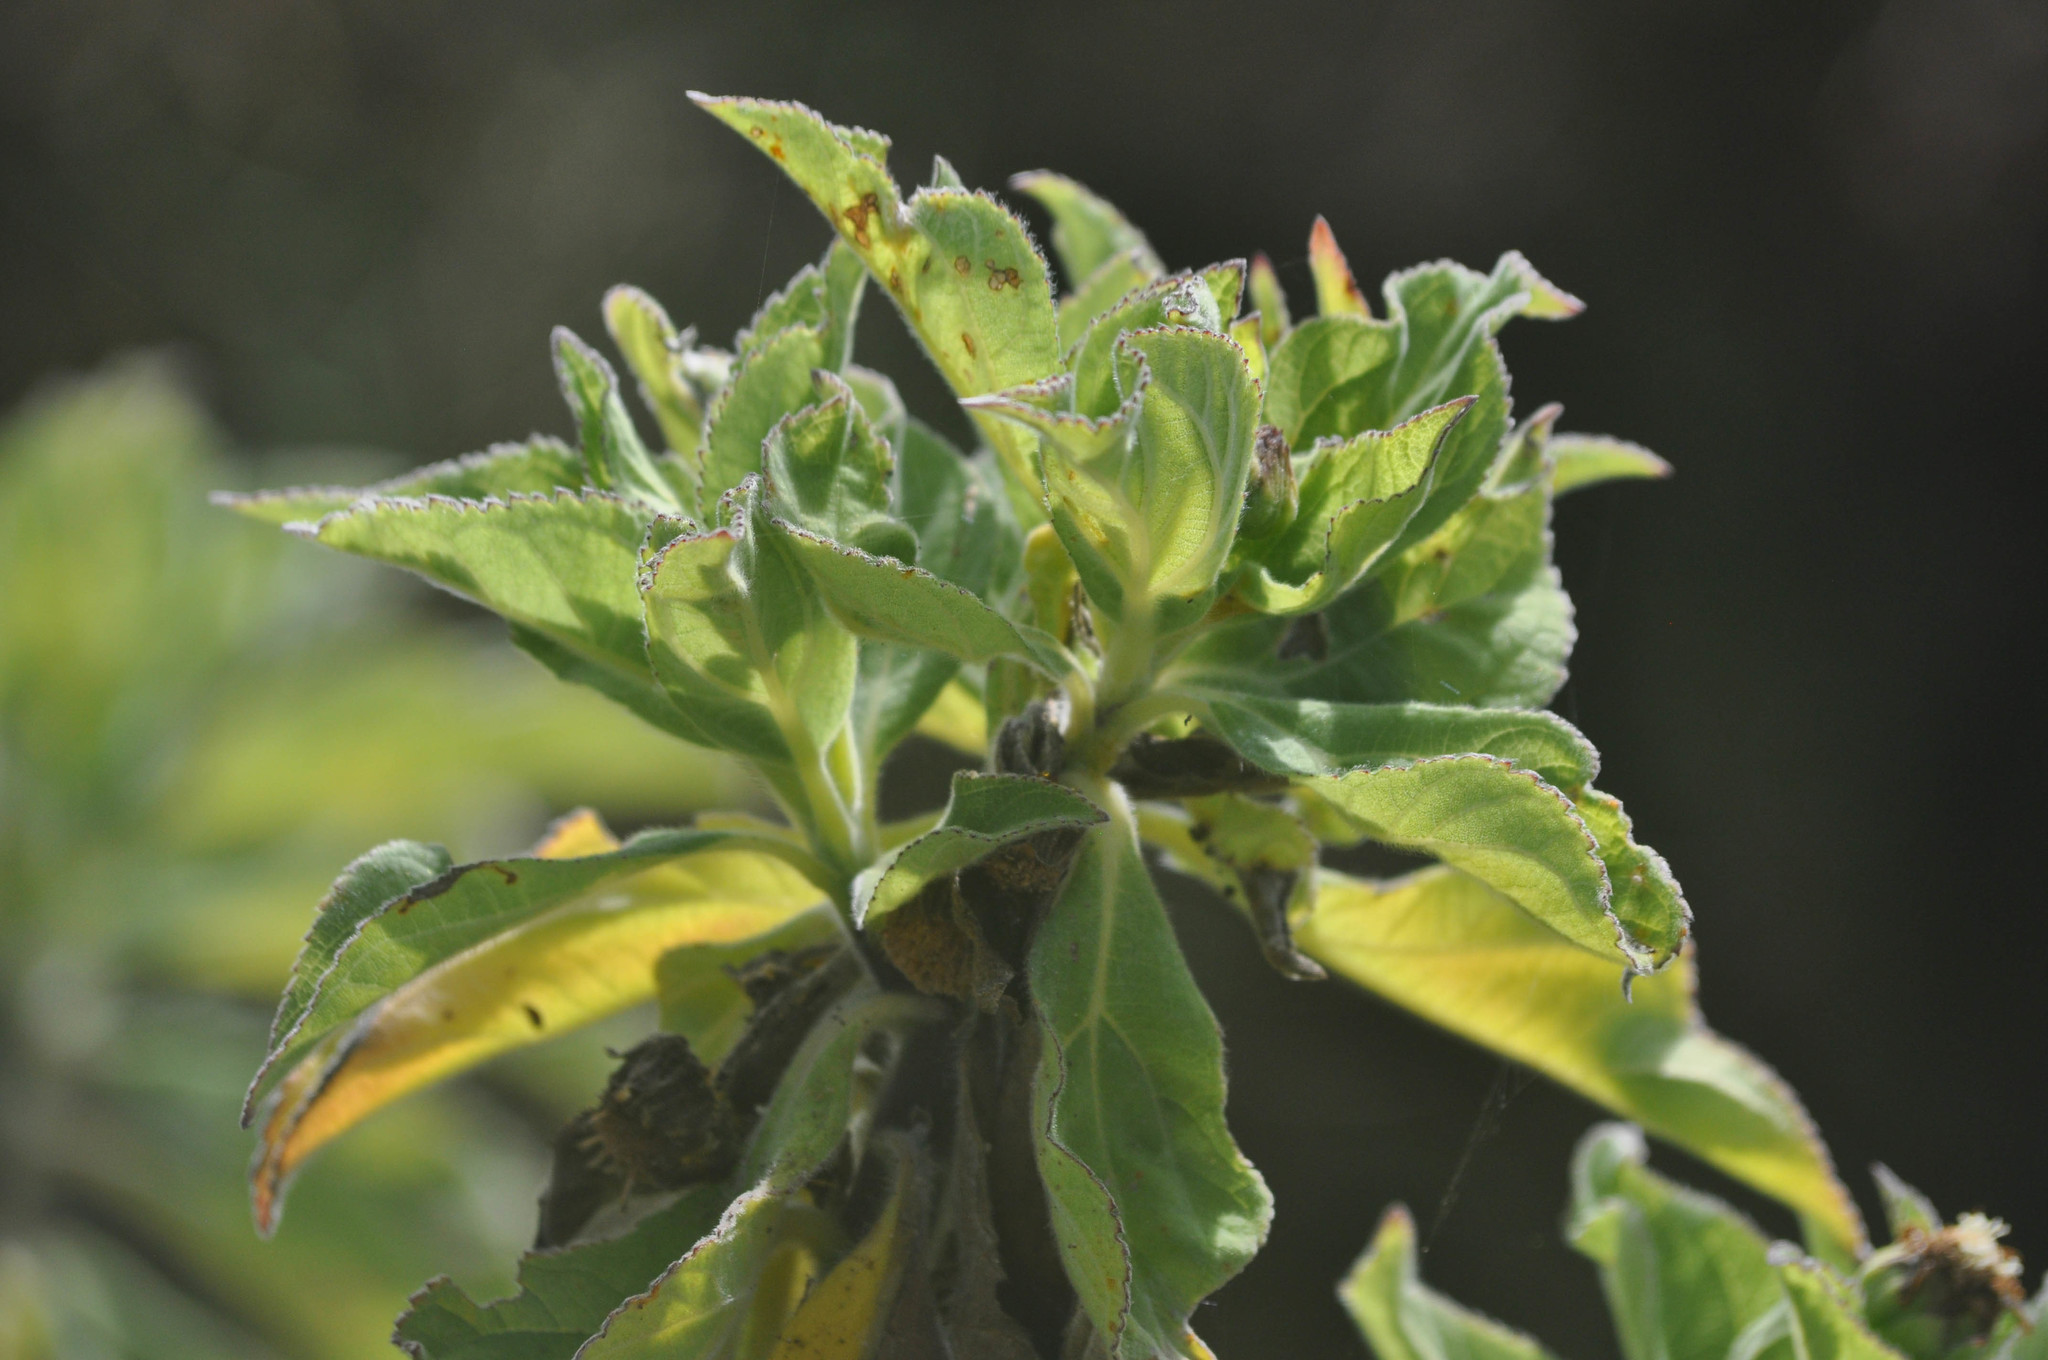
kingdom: Plantae
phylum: Tracheophyta
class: Magnoliopsida
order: Asterales
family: Asteraceae
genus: Scalesia
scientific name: Scalesia affinis
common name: Radiate-headed scalesia
